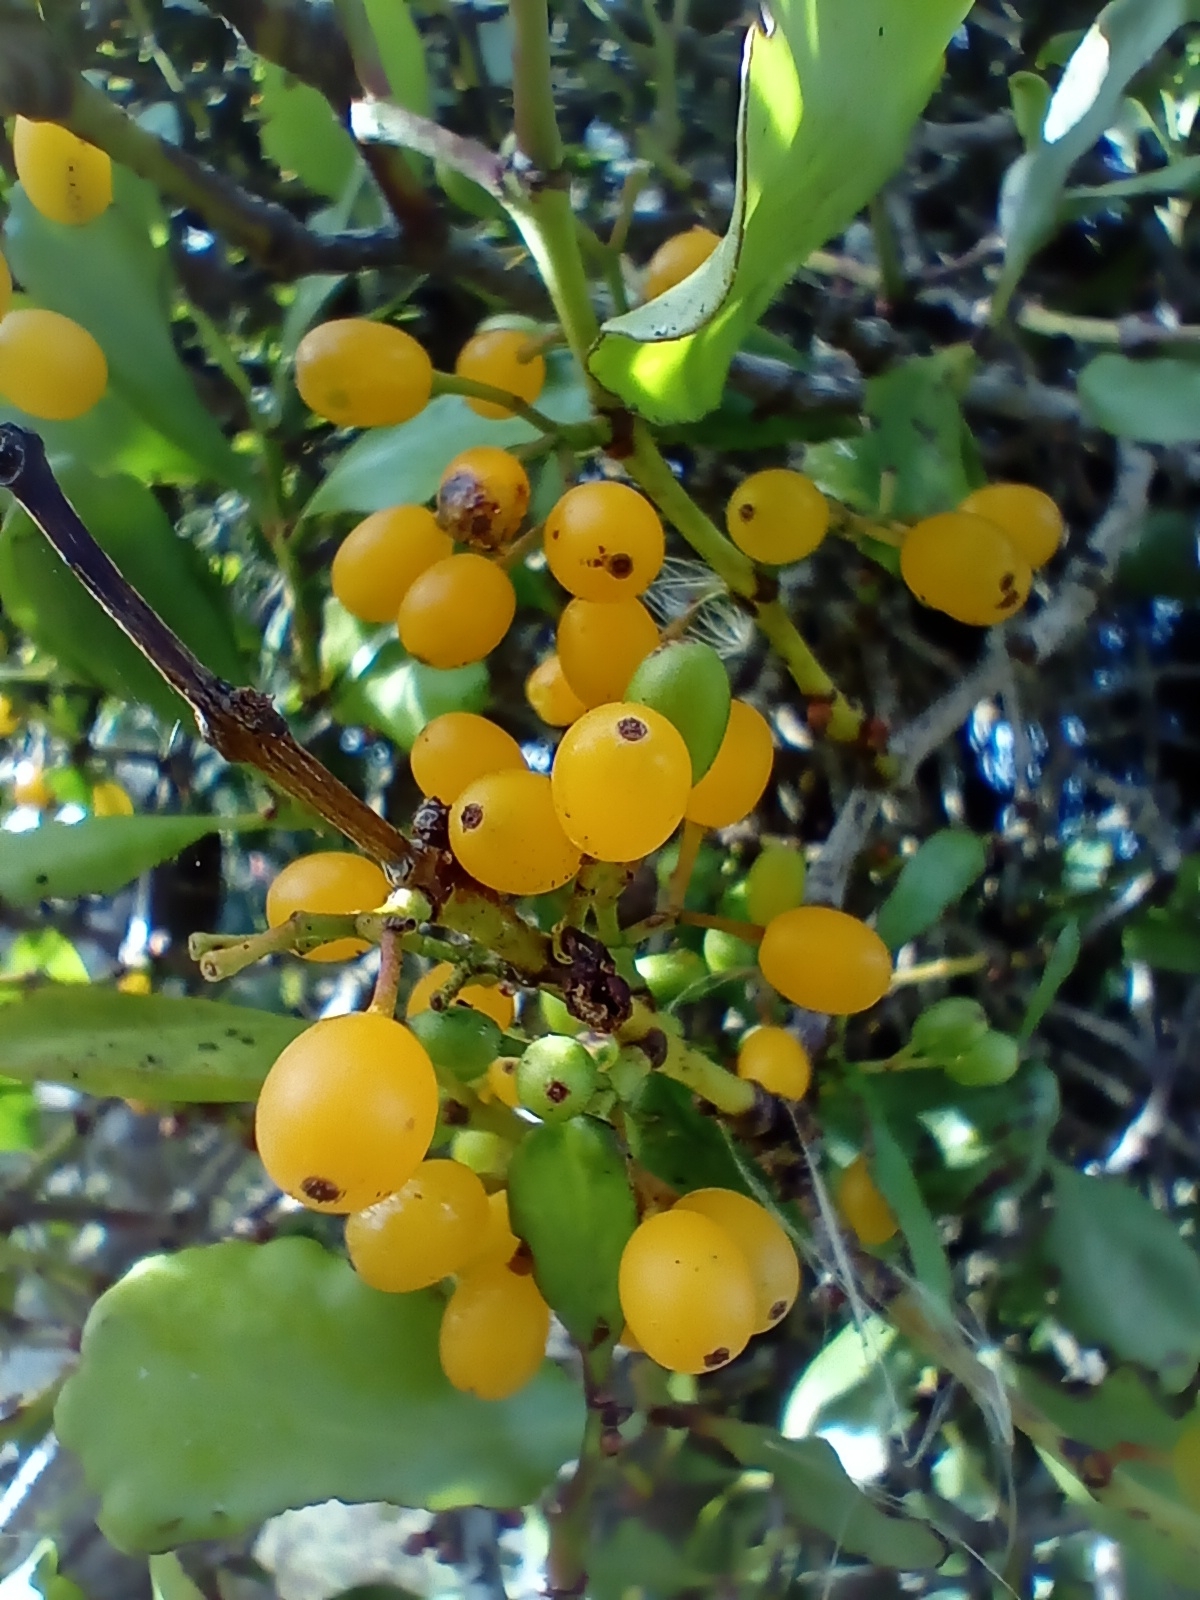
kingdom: Plantae
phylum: Tracheophyta
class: Magnoliopsida
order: Santalales
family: Loranthaceae
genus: Ileostylus
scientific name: Ileostylus micranthus
